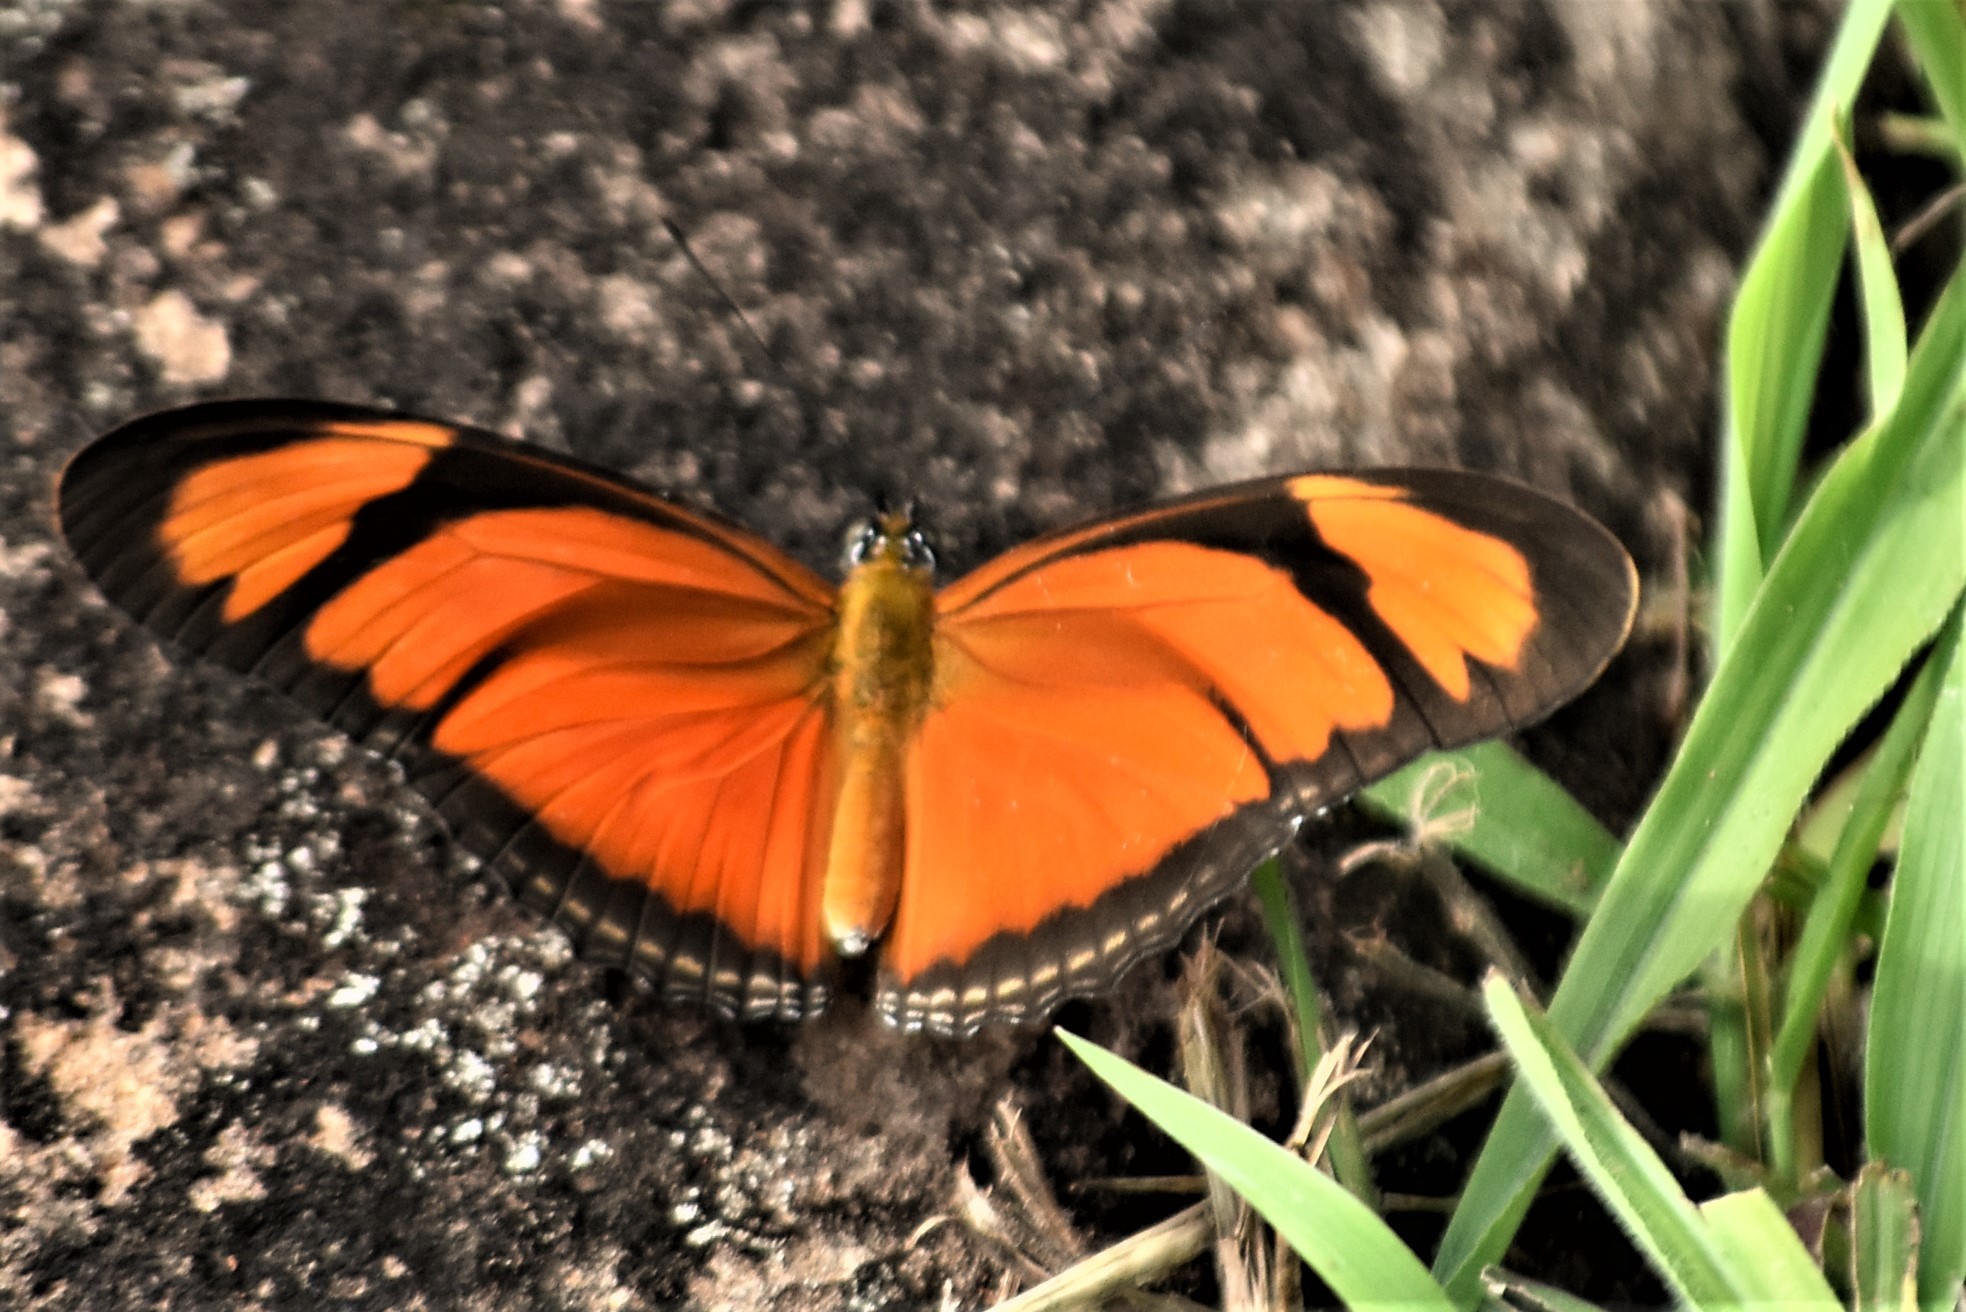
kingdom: Animalia
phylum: Arthropoda
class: Insecta
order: Lepidoptera
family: Nymphalidae
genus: Dryas
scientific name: Dryas iulia
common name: Flambeau
